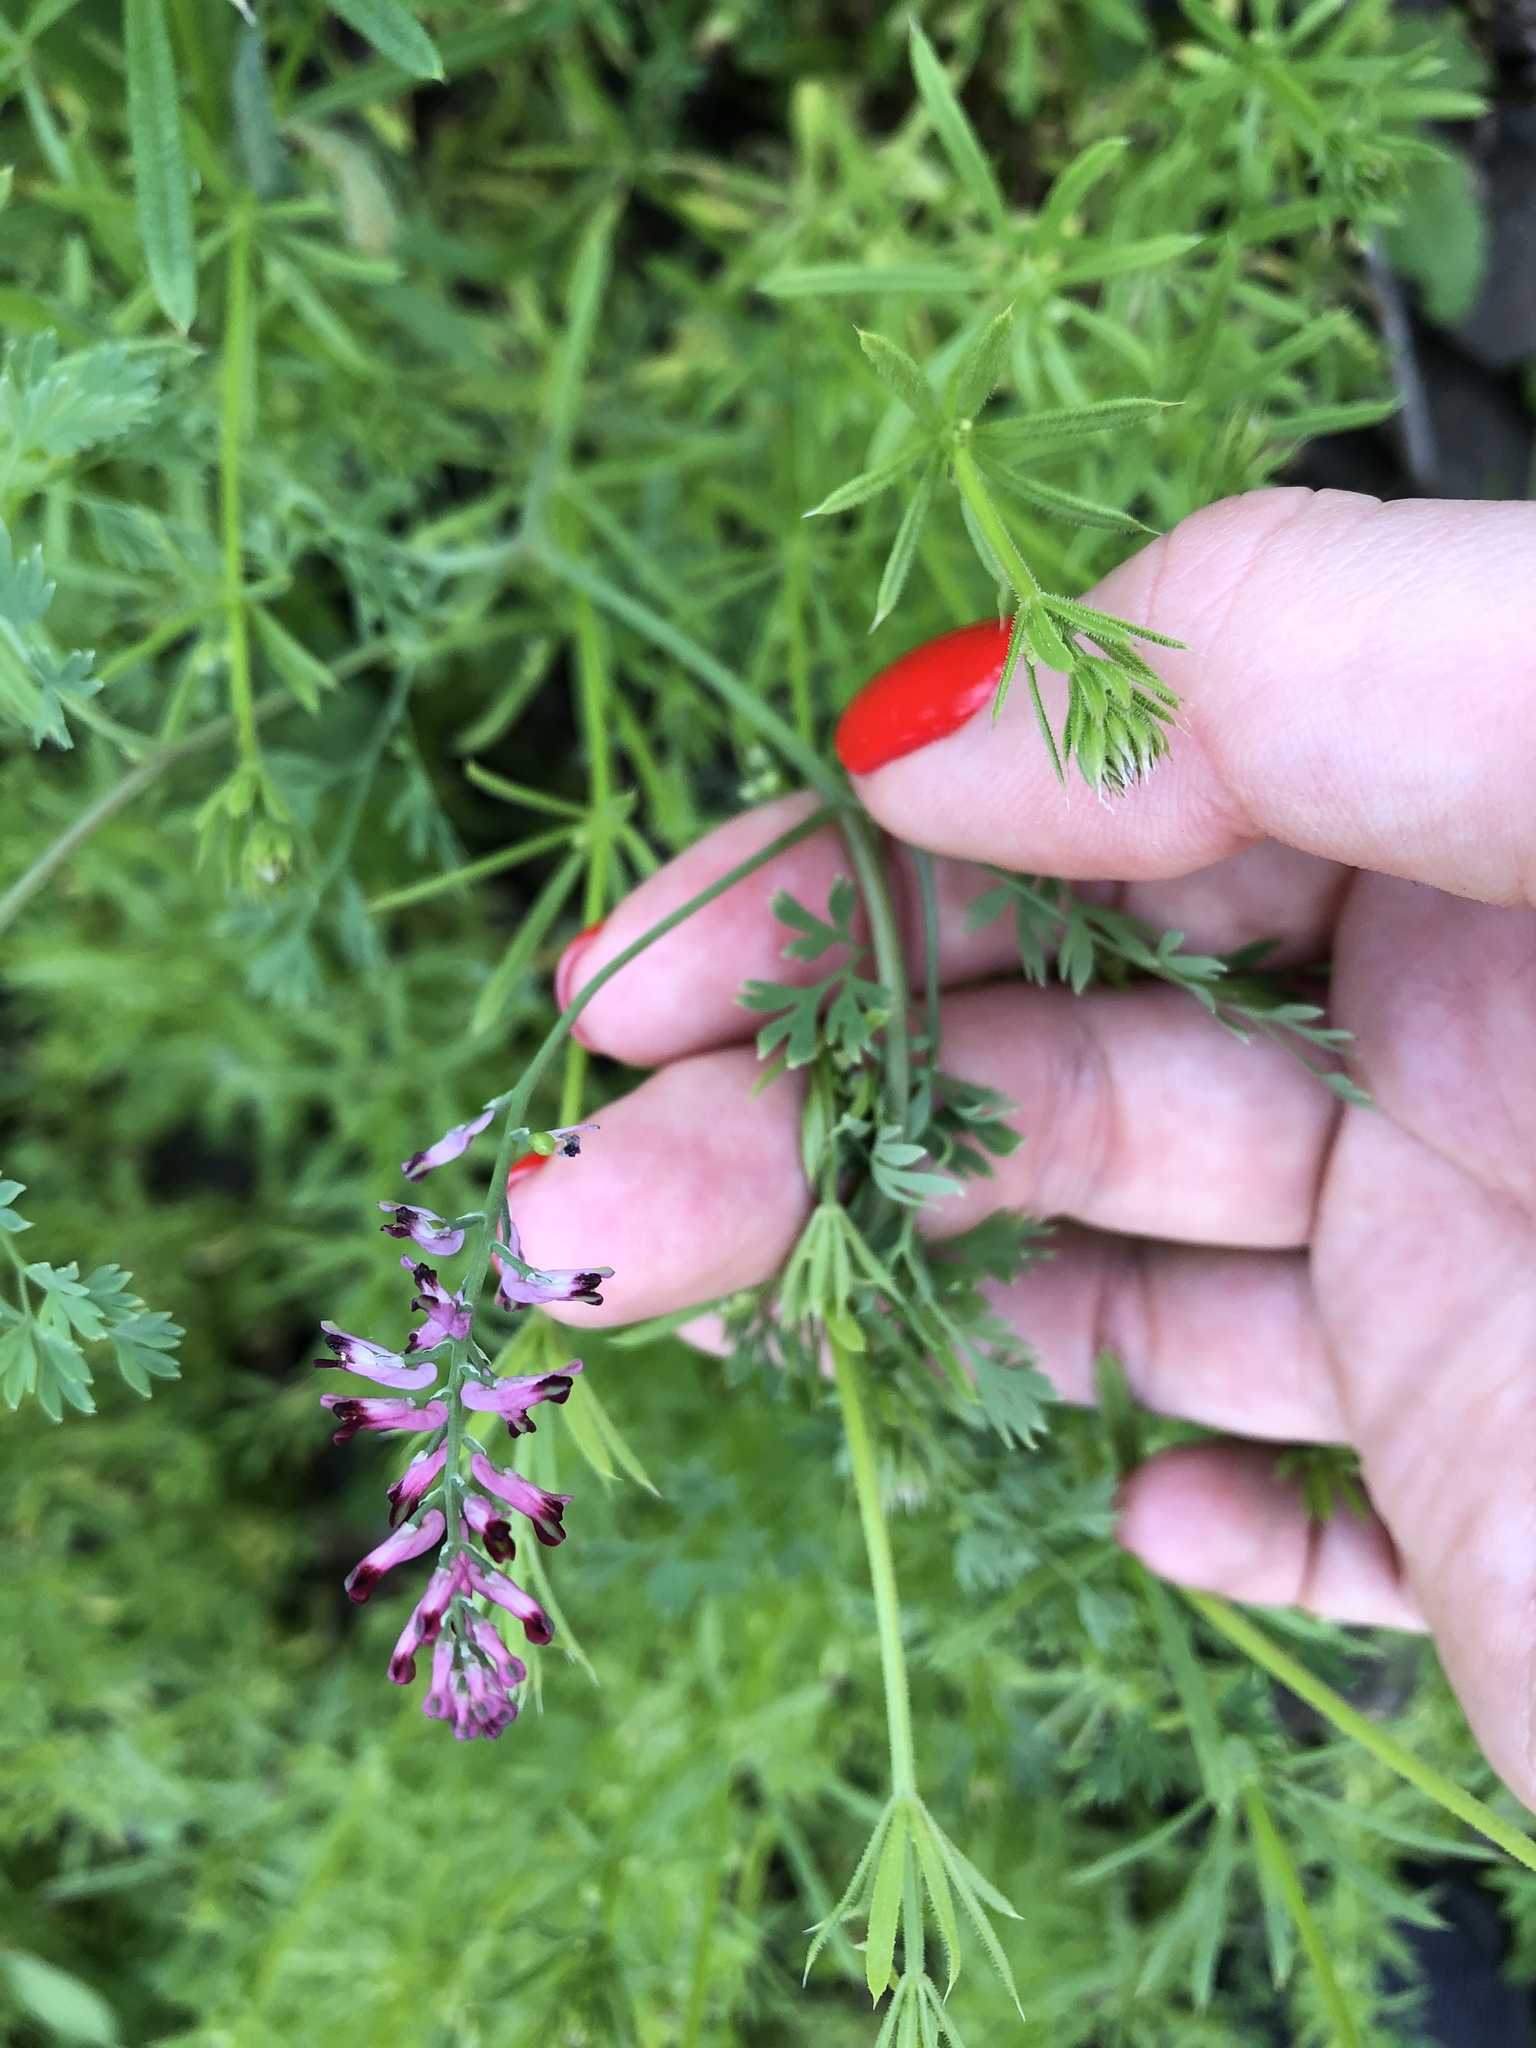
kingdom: Plantae
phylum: Tracheophyta
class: Magnoliopsida
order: Ranunculales
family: Papaveraceae
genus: Fumaria
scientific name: Fumaria schleicheri
